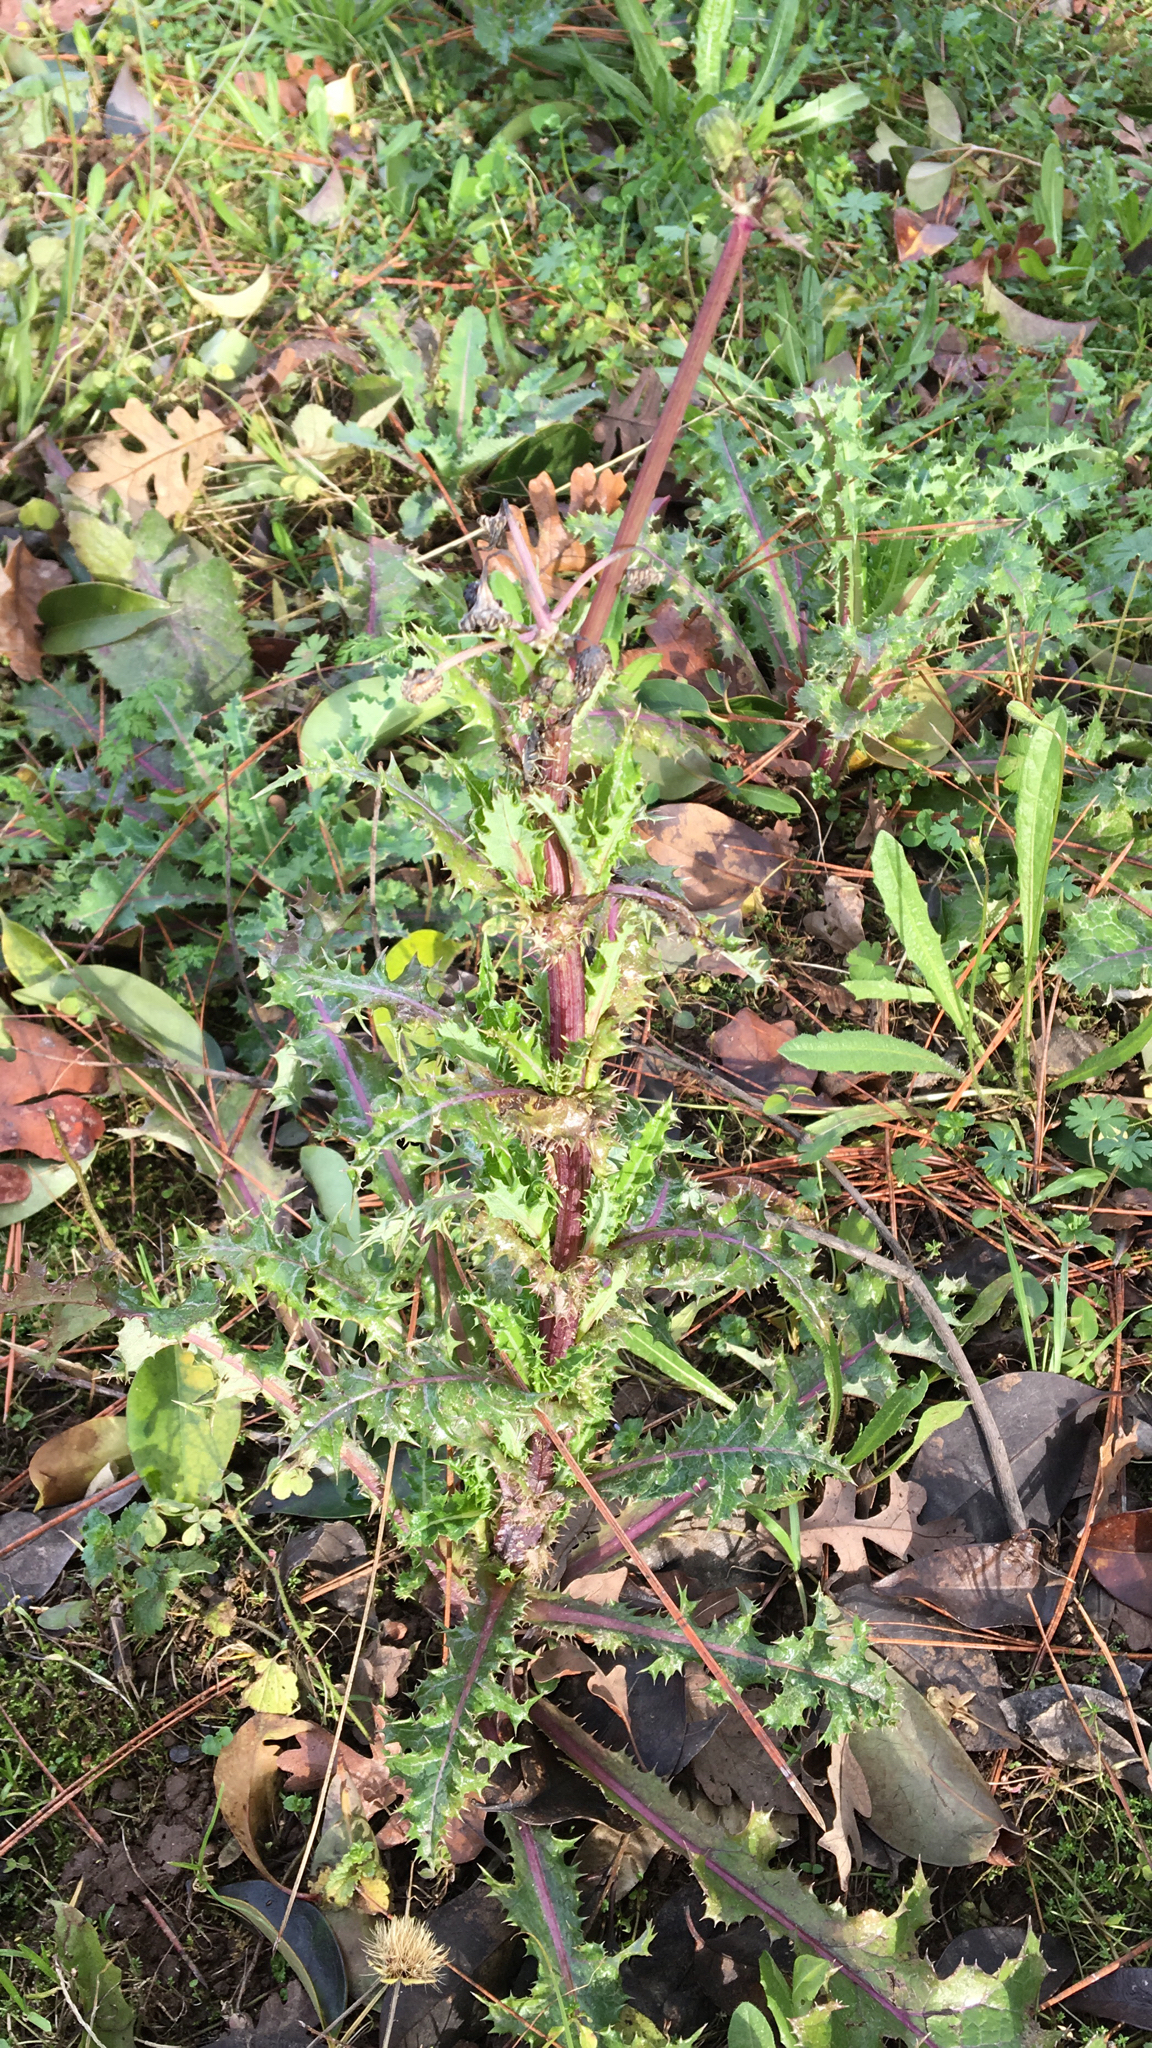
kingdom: Plantae
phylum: Tracheophyta
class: Magnoliopsida
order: Asterales
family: Asteraceae
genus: Sonchus
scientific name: Sonchus asper
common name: Prickly sow-thistle
